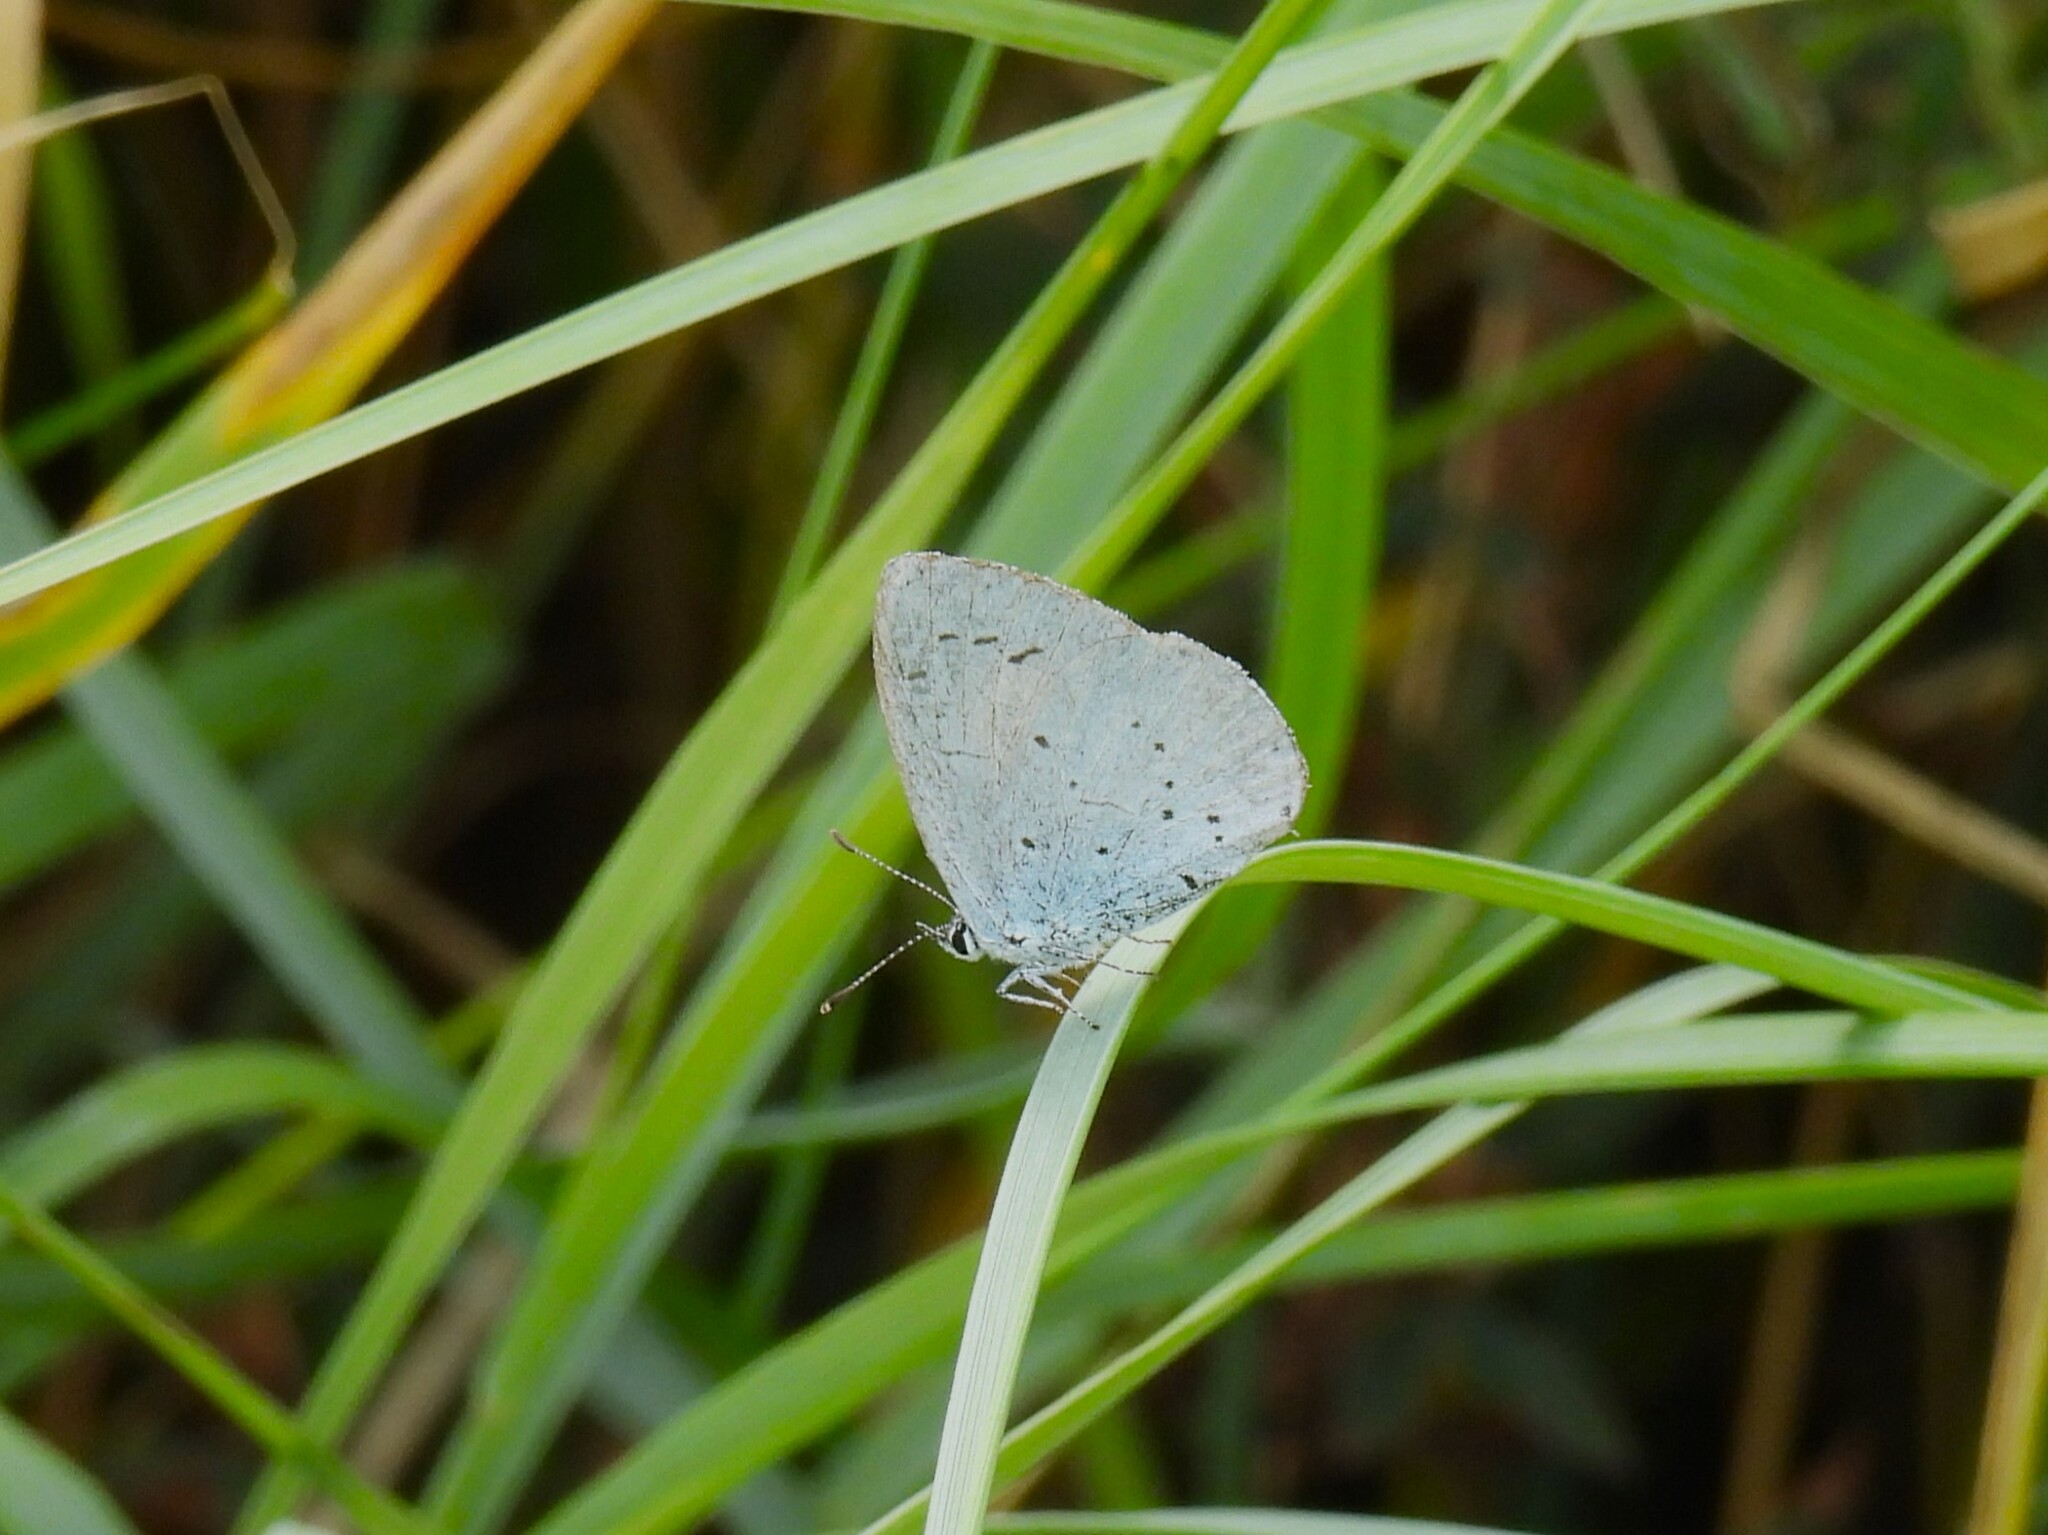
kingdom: Animalia
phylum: Arthropoda
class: Insecta
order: Lepidoptera
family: Lycaenidae
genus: Celastrina
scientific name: Celastrina argiolus
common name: Holly blue
